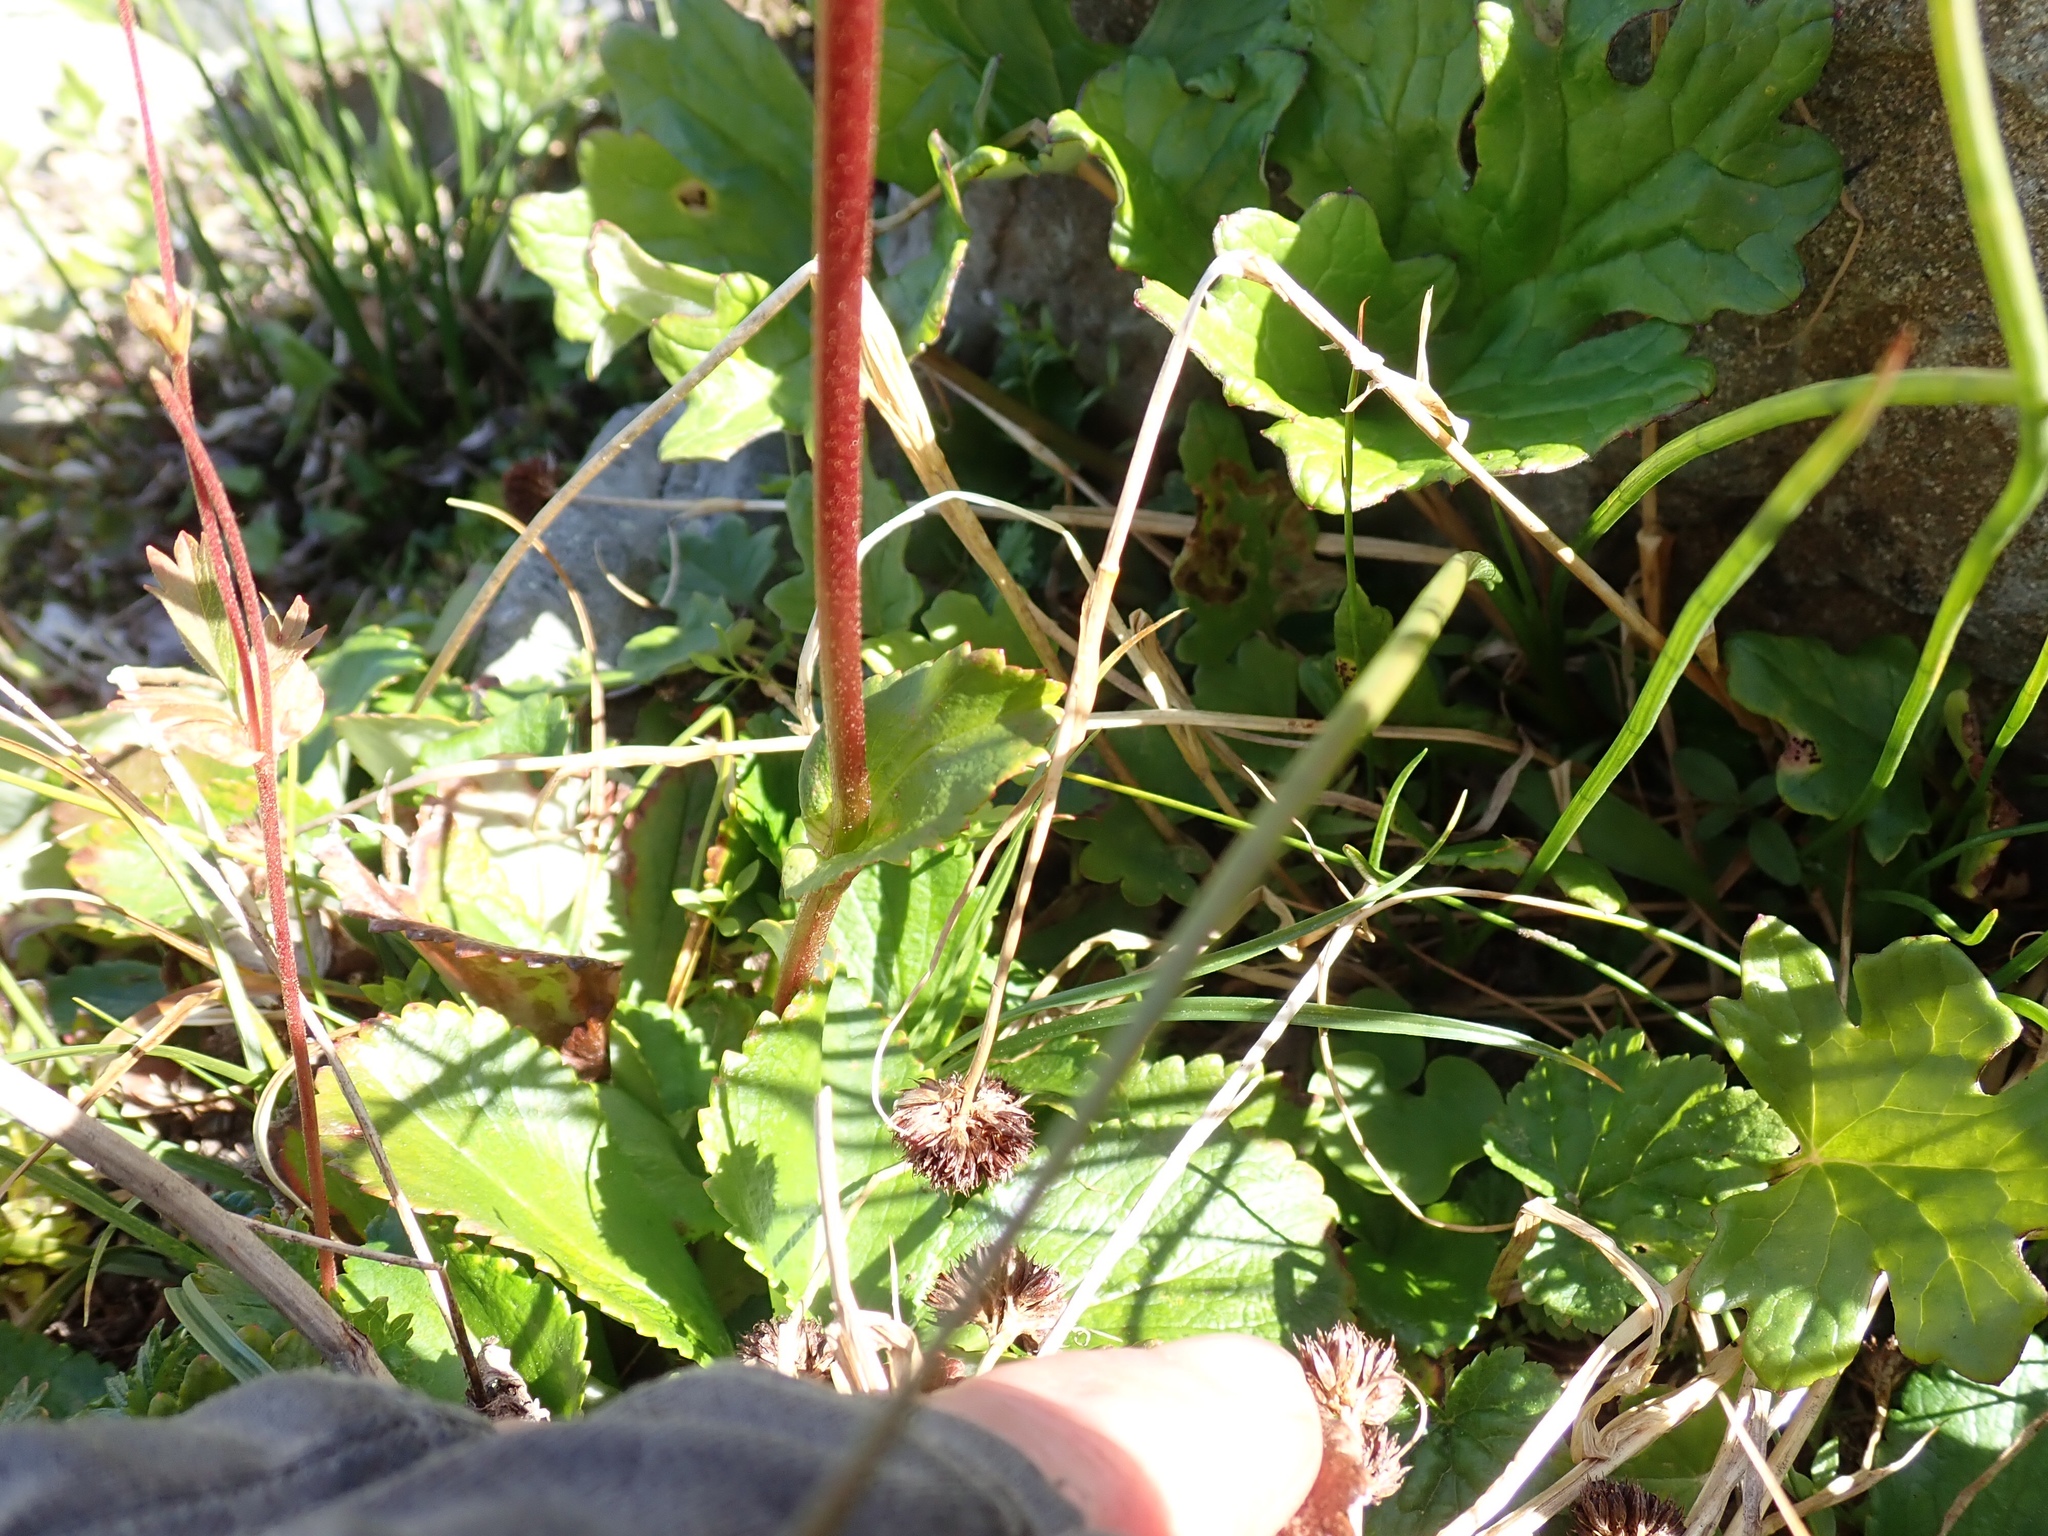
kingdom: Plantae
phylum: Tracheophyta
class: Magnoliopsida
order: Saxifragales
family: Saxifragaceae
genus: Leptarrhena
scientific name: Leptarrhena pyrolifolia
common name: Leatherleaf-saxifrage
